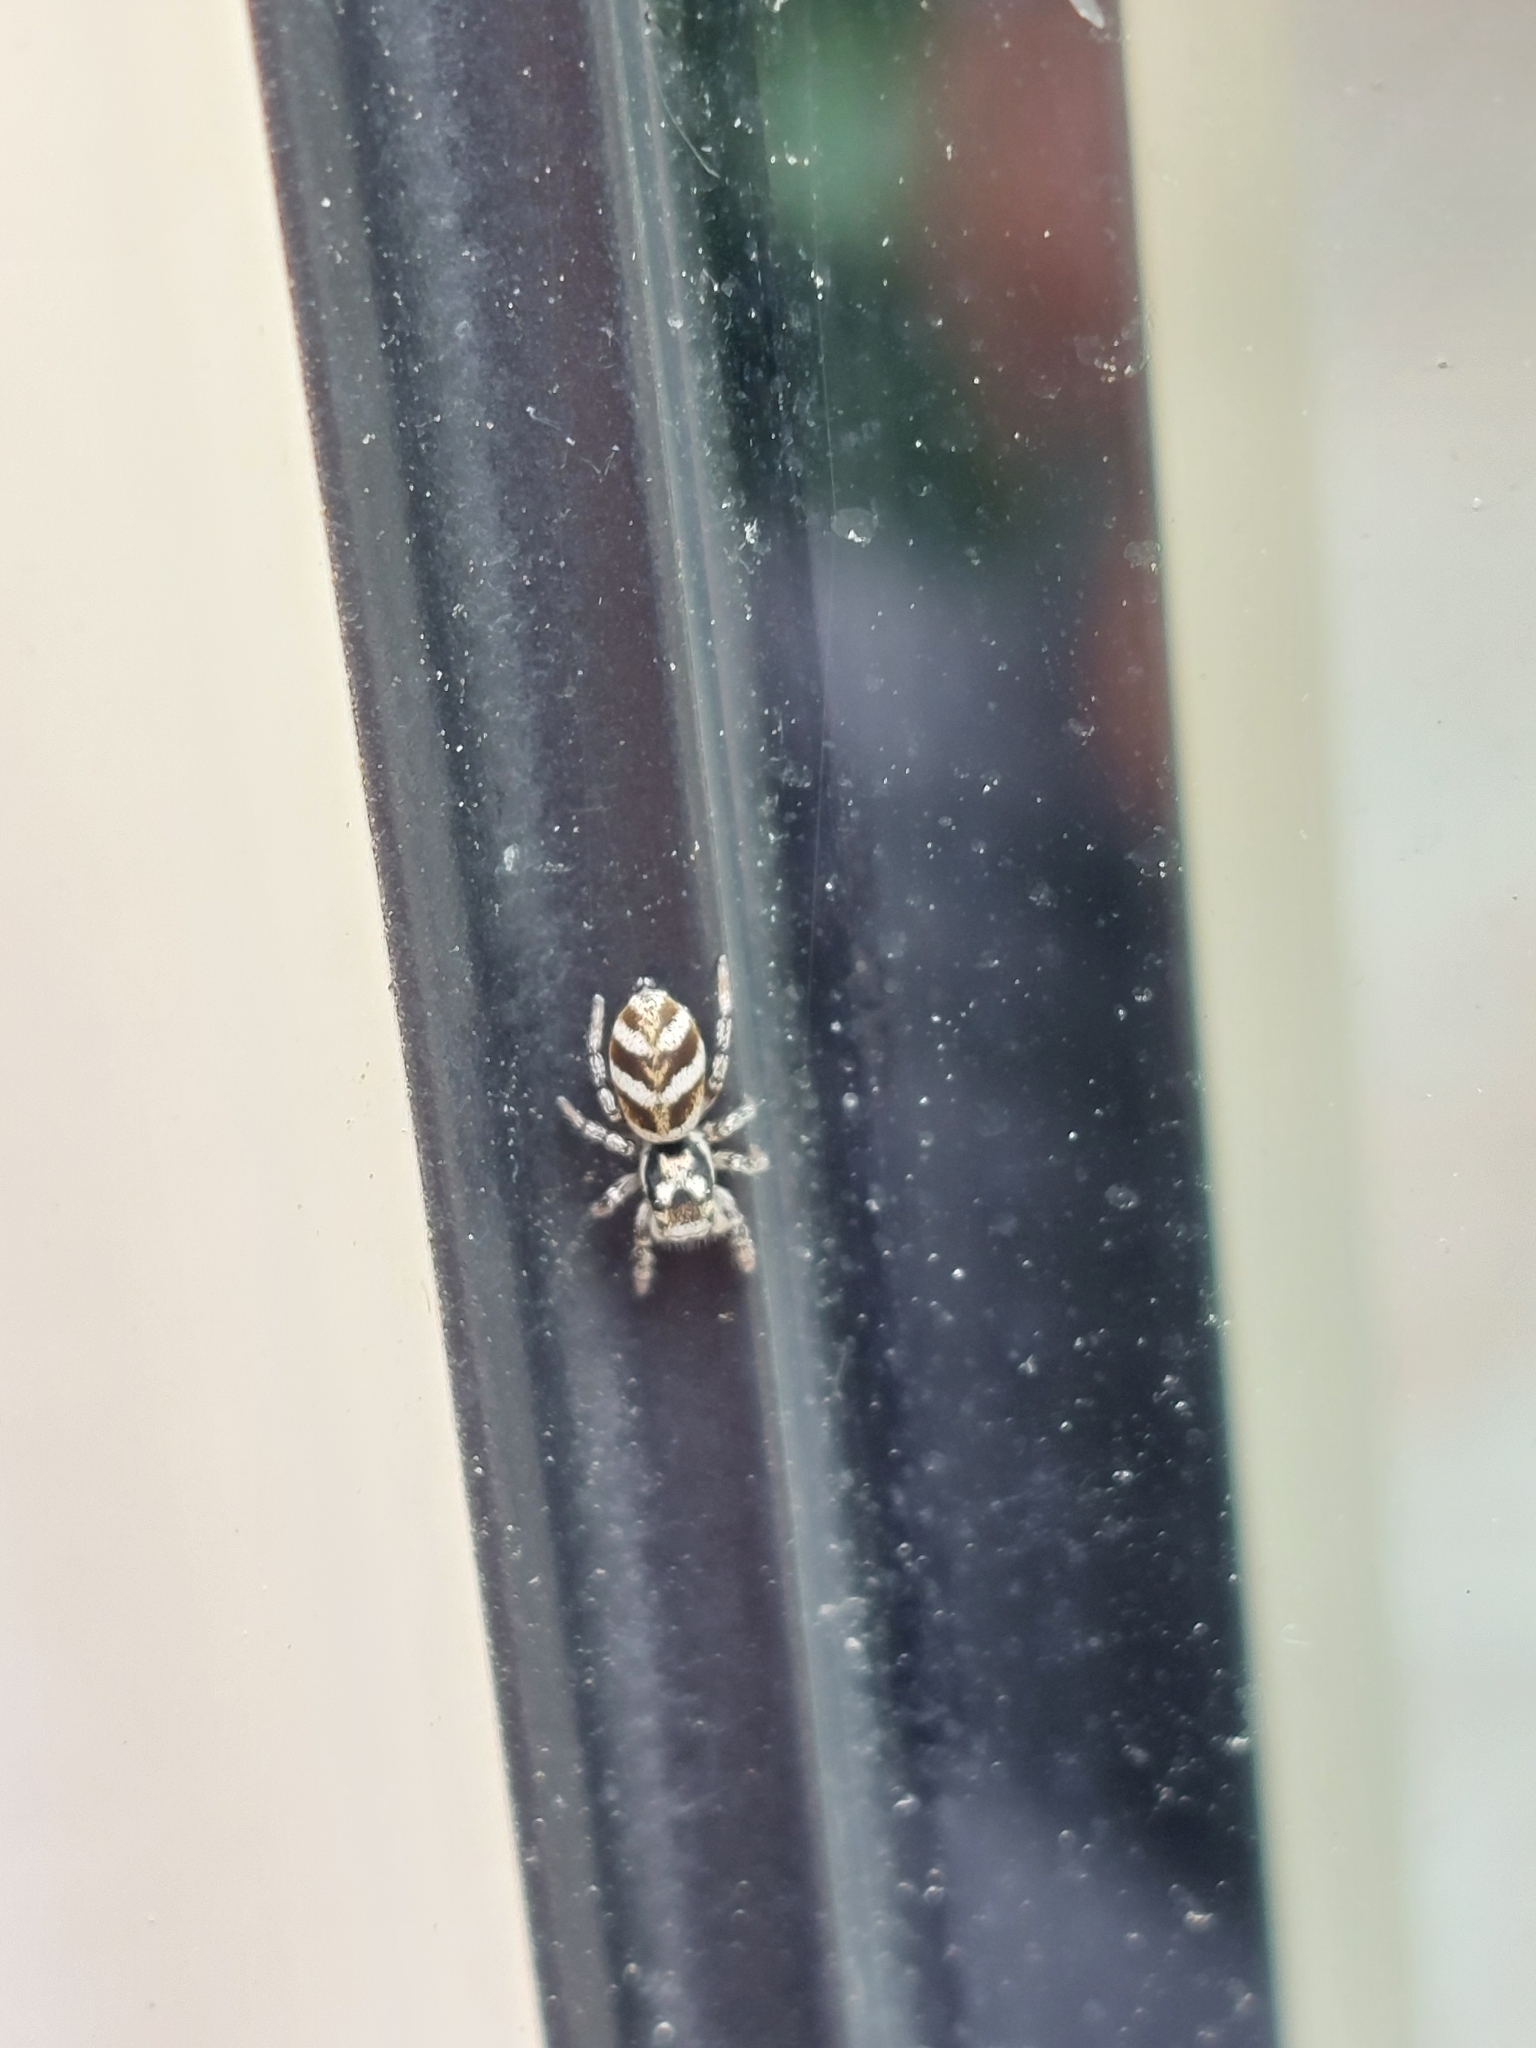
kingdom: Animalia
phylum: Arthropoda
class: Arachnida
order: Araneae
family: Salticidae
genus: Salticus
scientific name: Salticus scenicus
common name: Zebra jumper
